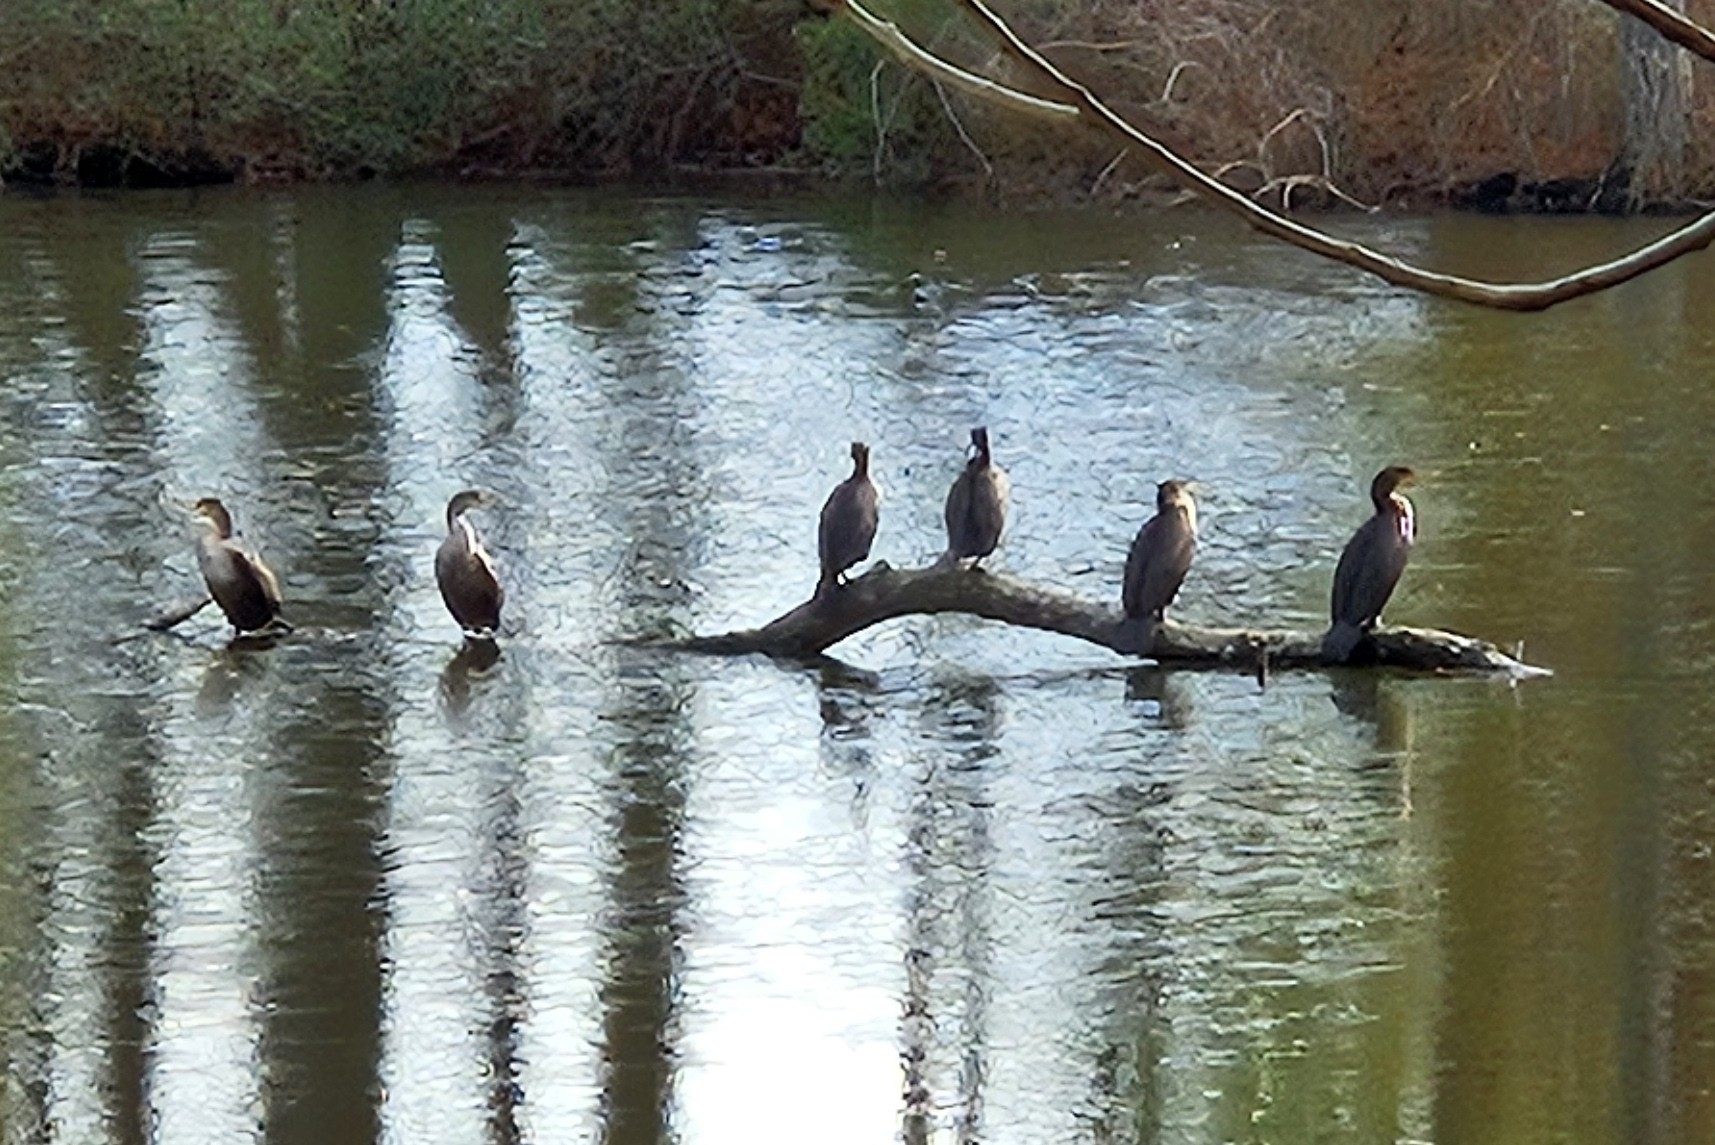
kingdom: Animalia
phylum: Chordata
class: Aves
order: Suliformes
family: Phalacrocoracidae
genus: Phalacrocorax
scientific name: Phalacrocorax auritus
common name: Double-crested cormorant
